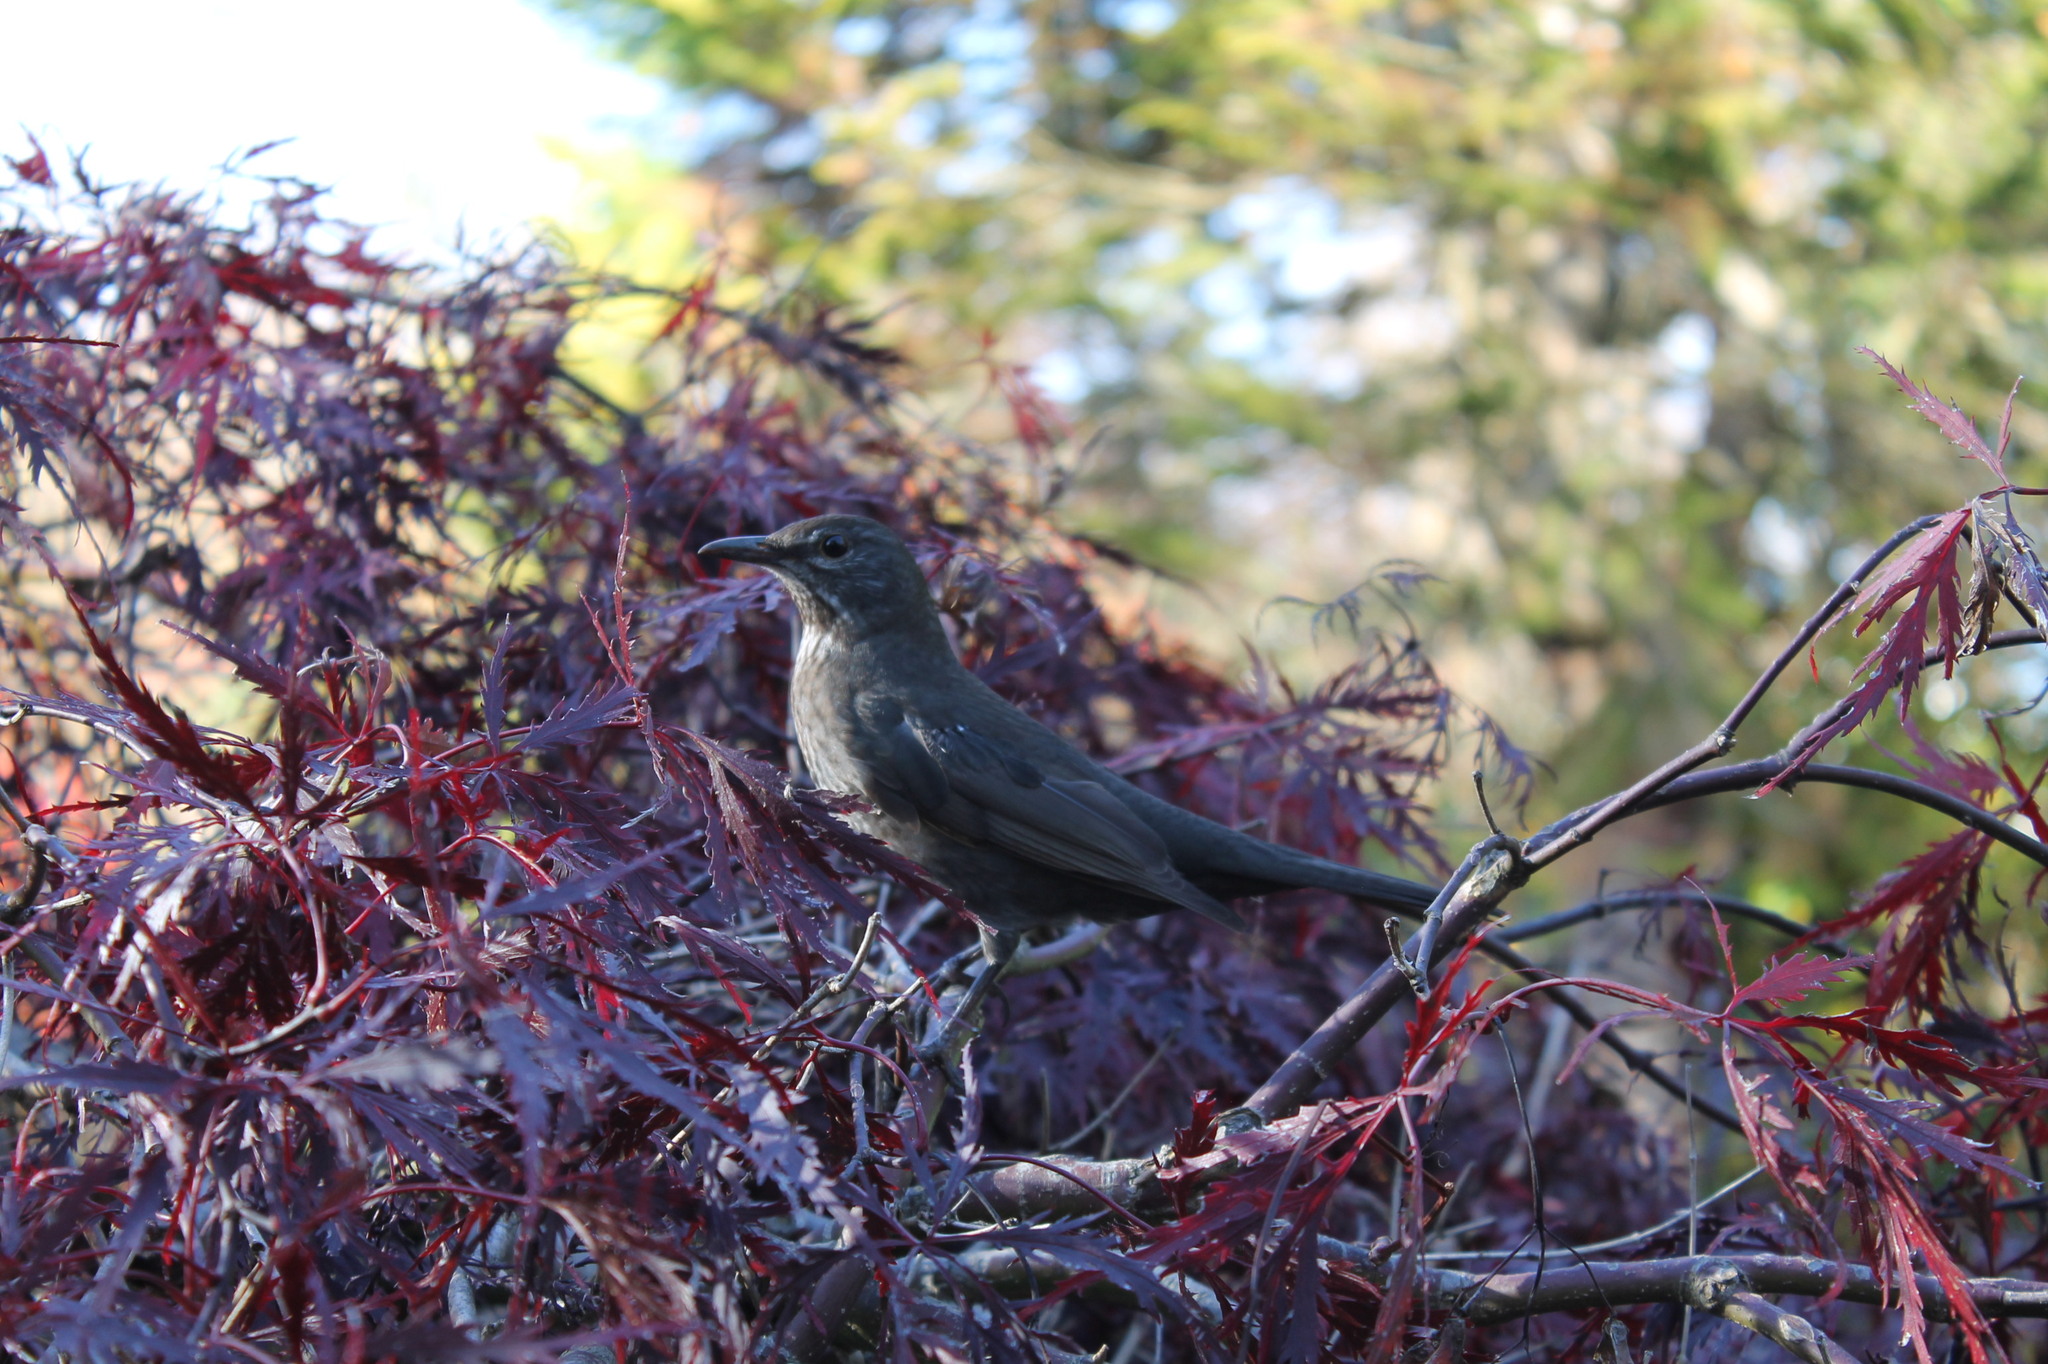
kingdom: Animalia
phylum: Chordata
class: Aves
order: Passeriformes
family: Turdidae
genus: Turdus
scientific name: Turdus merula
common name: Common blackbird
